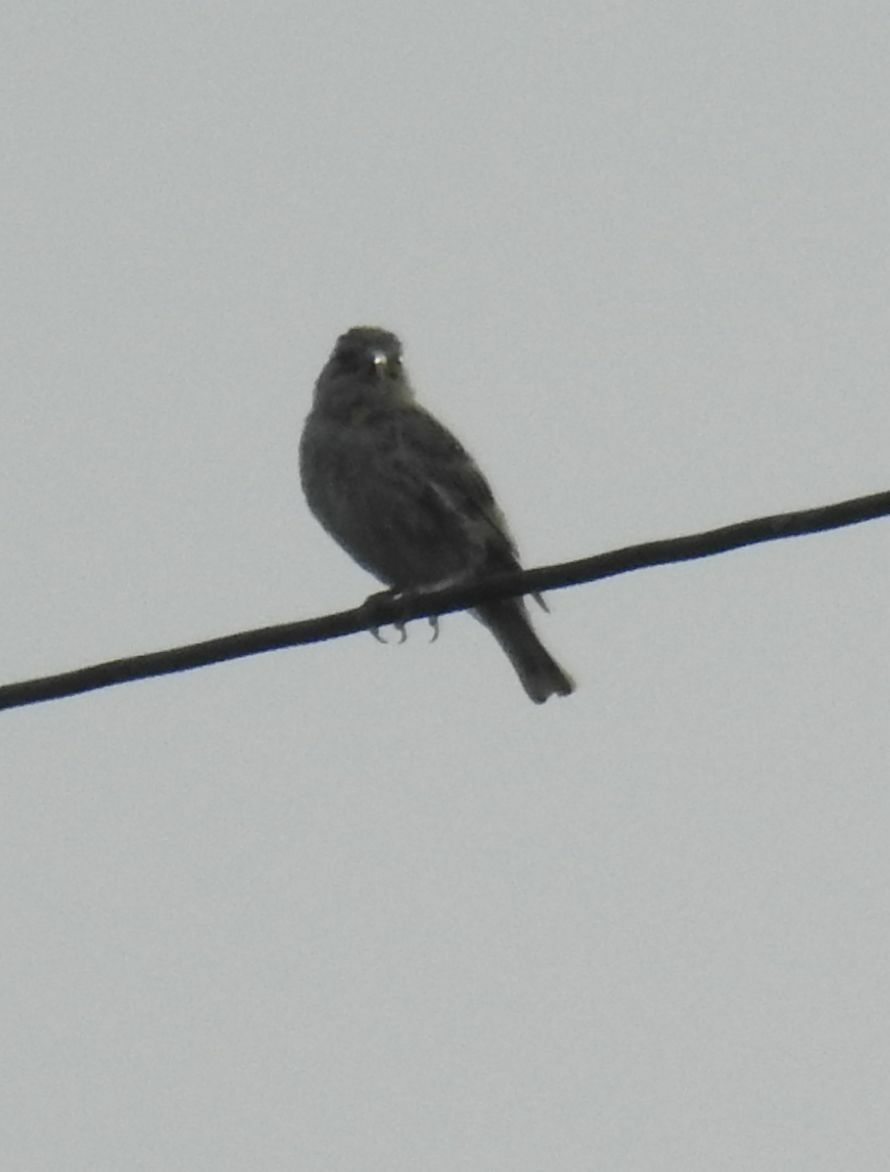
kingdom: Animalia
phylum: Chordata
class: Aves
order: Passeriformes
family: Passeridae
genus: Petronia
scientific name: Petronia petronia
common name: Rock sparrow
